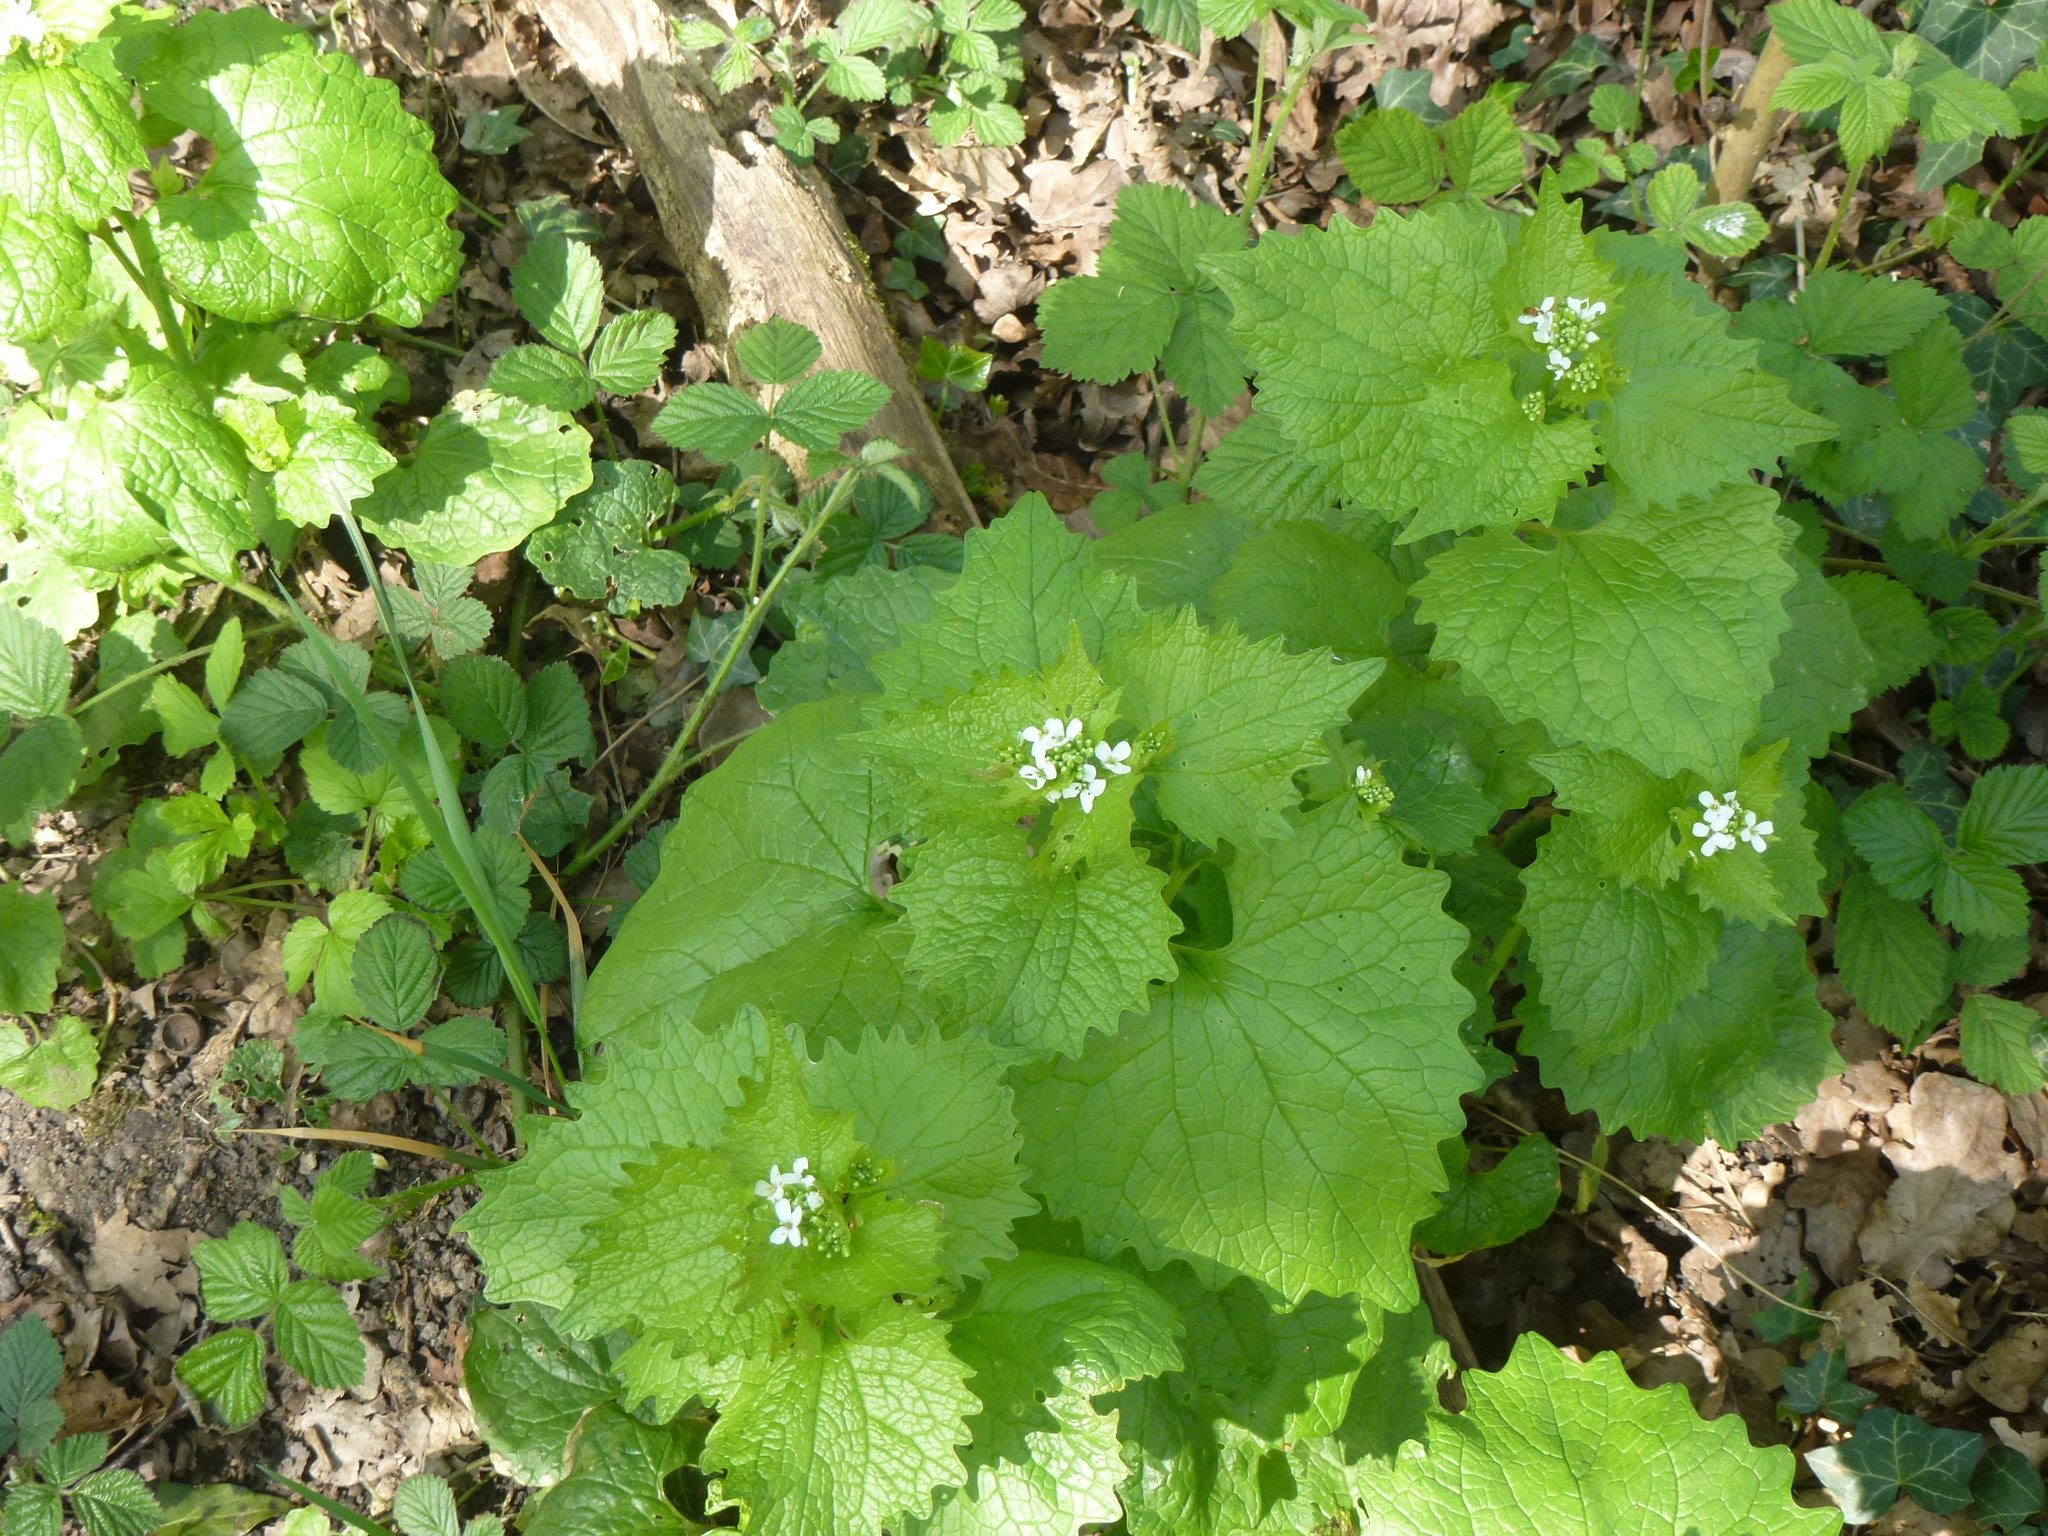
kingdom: Plantae
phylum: Tracheophyta
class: Magnoliopsida
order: Brassicales
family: Brassicaceae
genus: Alliaria
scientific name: Alliaria petiolata
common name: Garlic mustard
